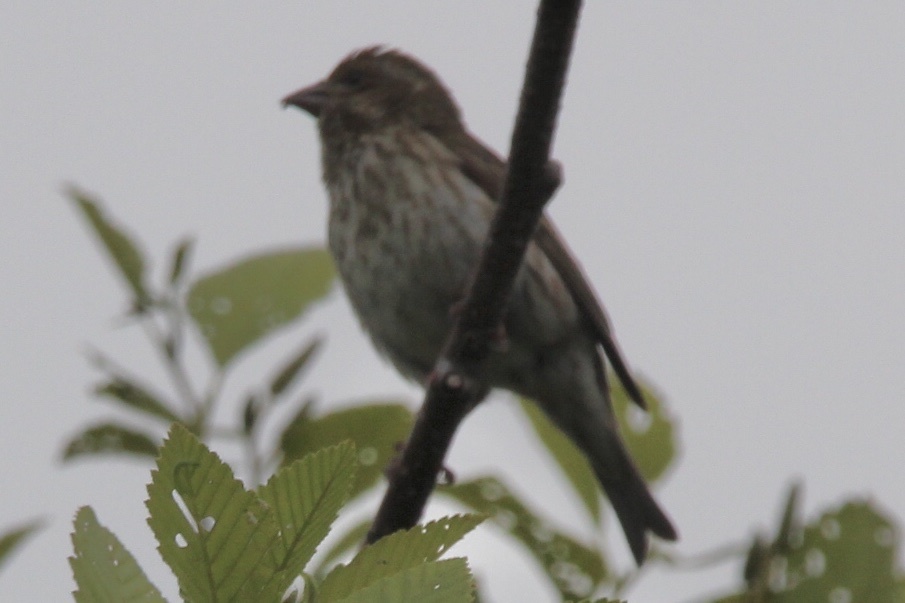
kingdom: Animalia
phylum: Chordata
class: Aves
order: Passeriformes
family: Fringillidae
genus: Haemorhous
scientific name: Haemorhous purpureus
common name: Purple finch
